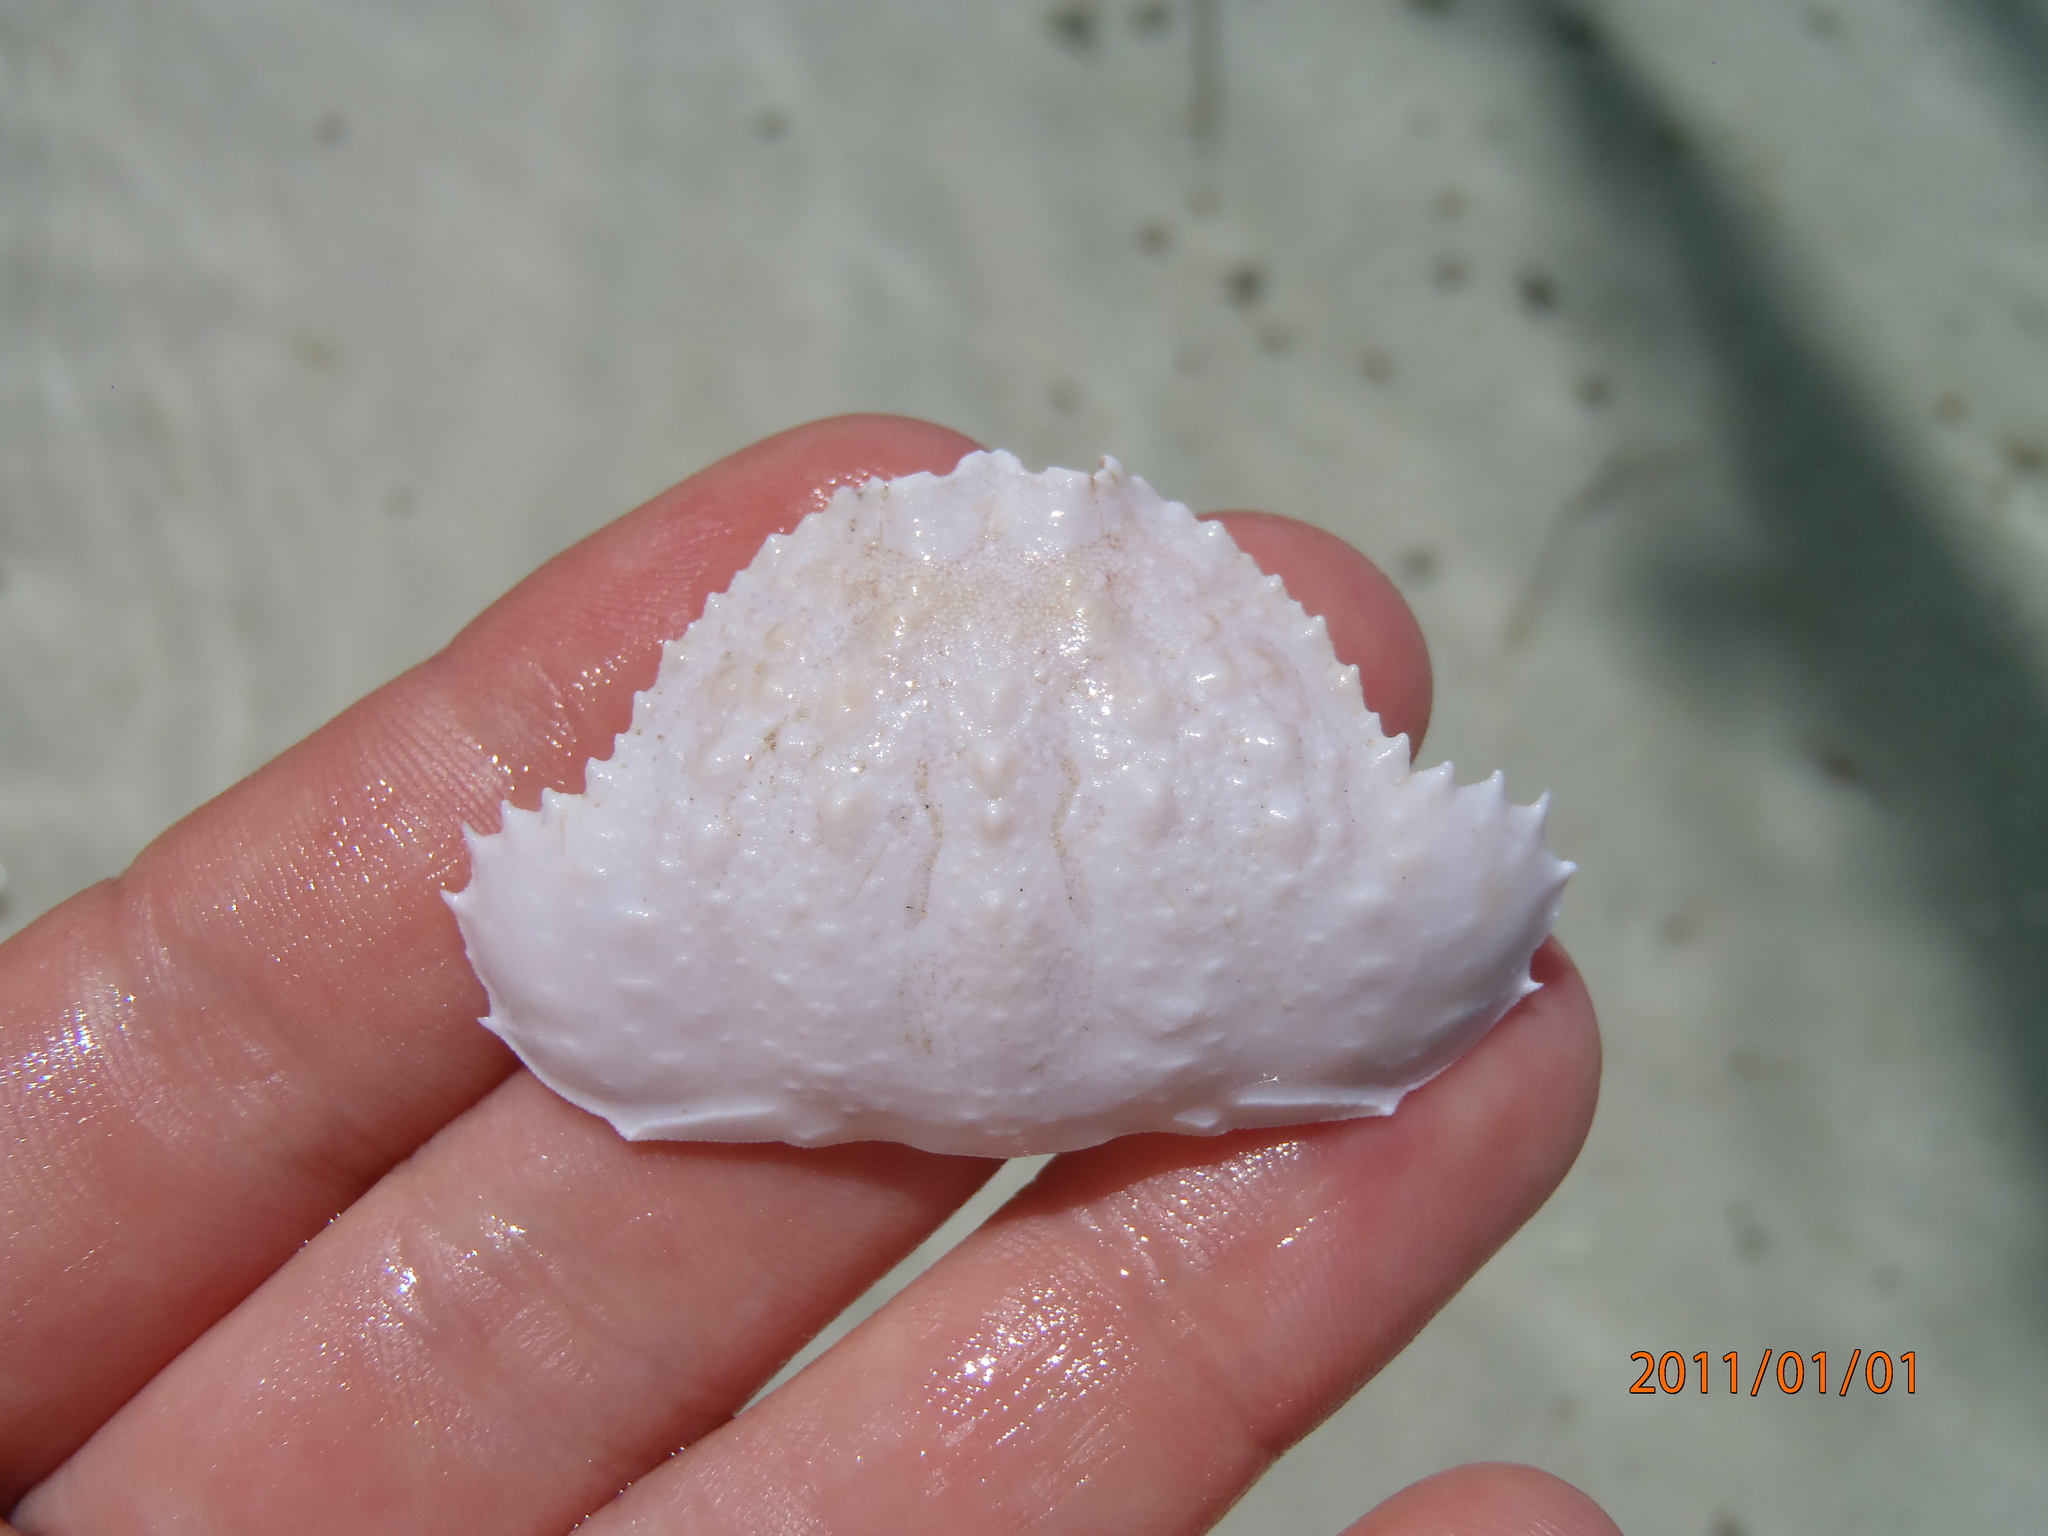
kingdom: Animalia
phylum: Arthropoda
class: Malacostraca
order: Decapoda
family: Calappidae
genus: Calappa
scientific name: Calappa hepatica
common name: Smooth box crab
